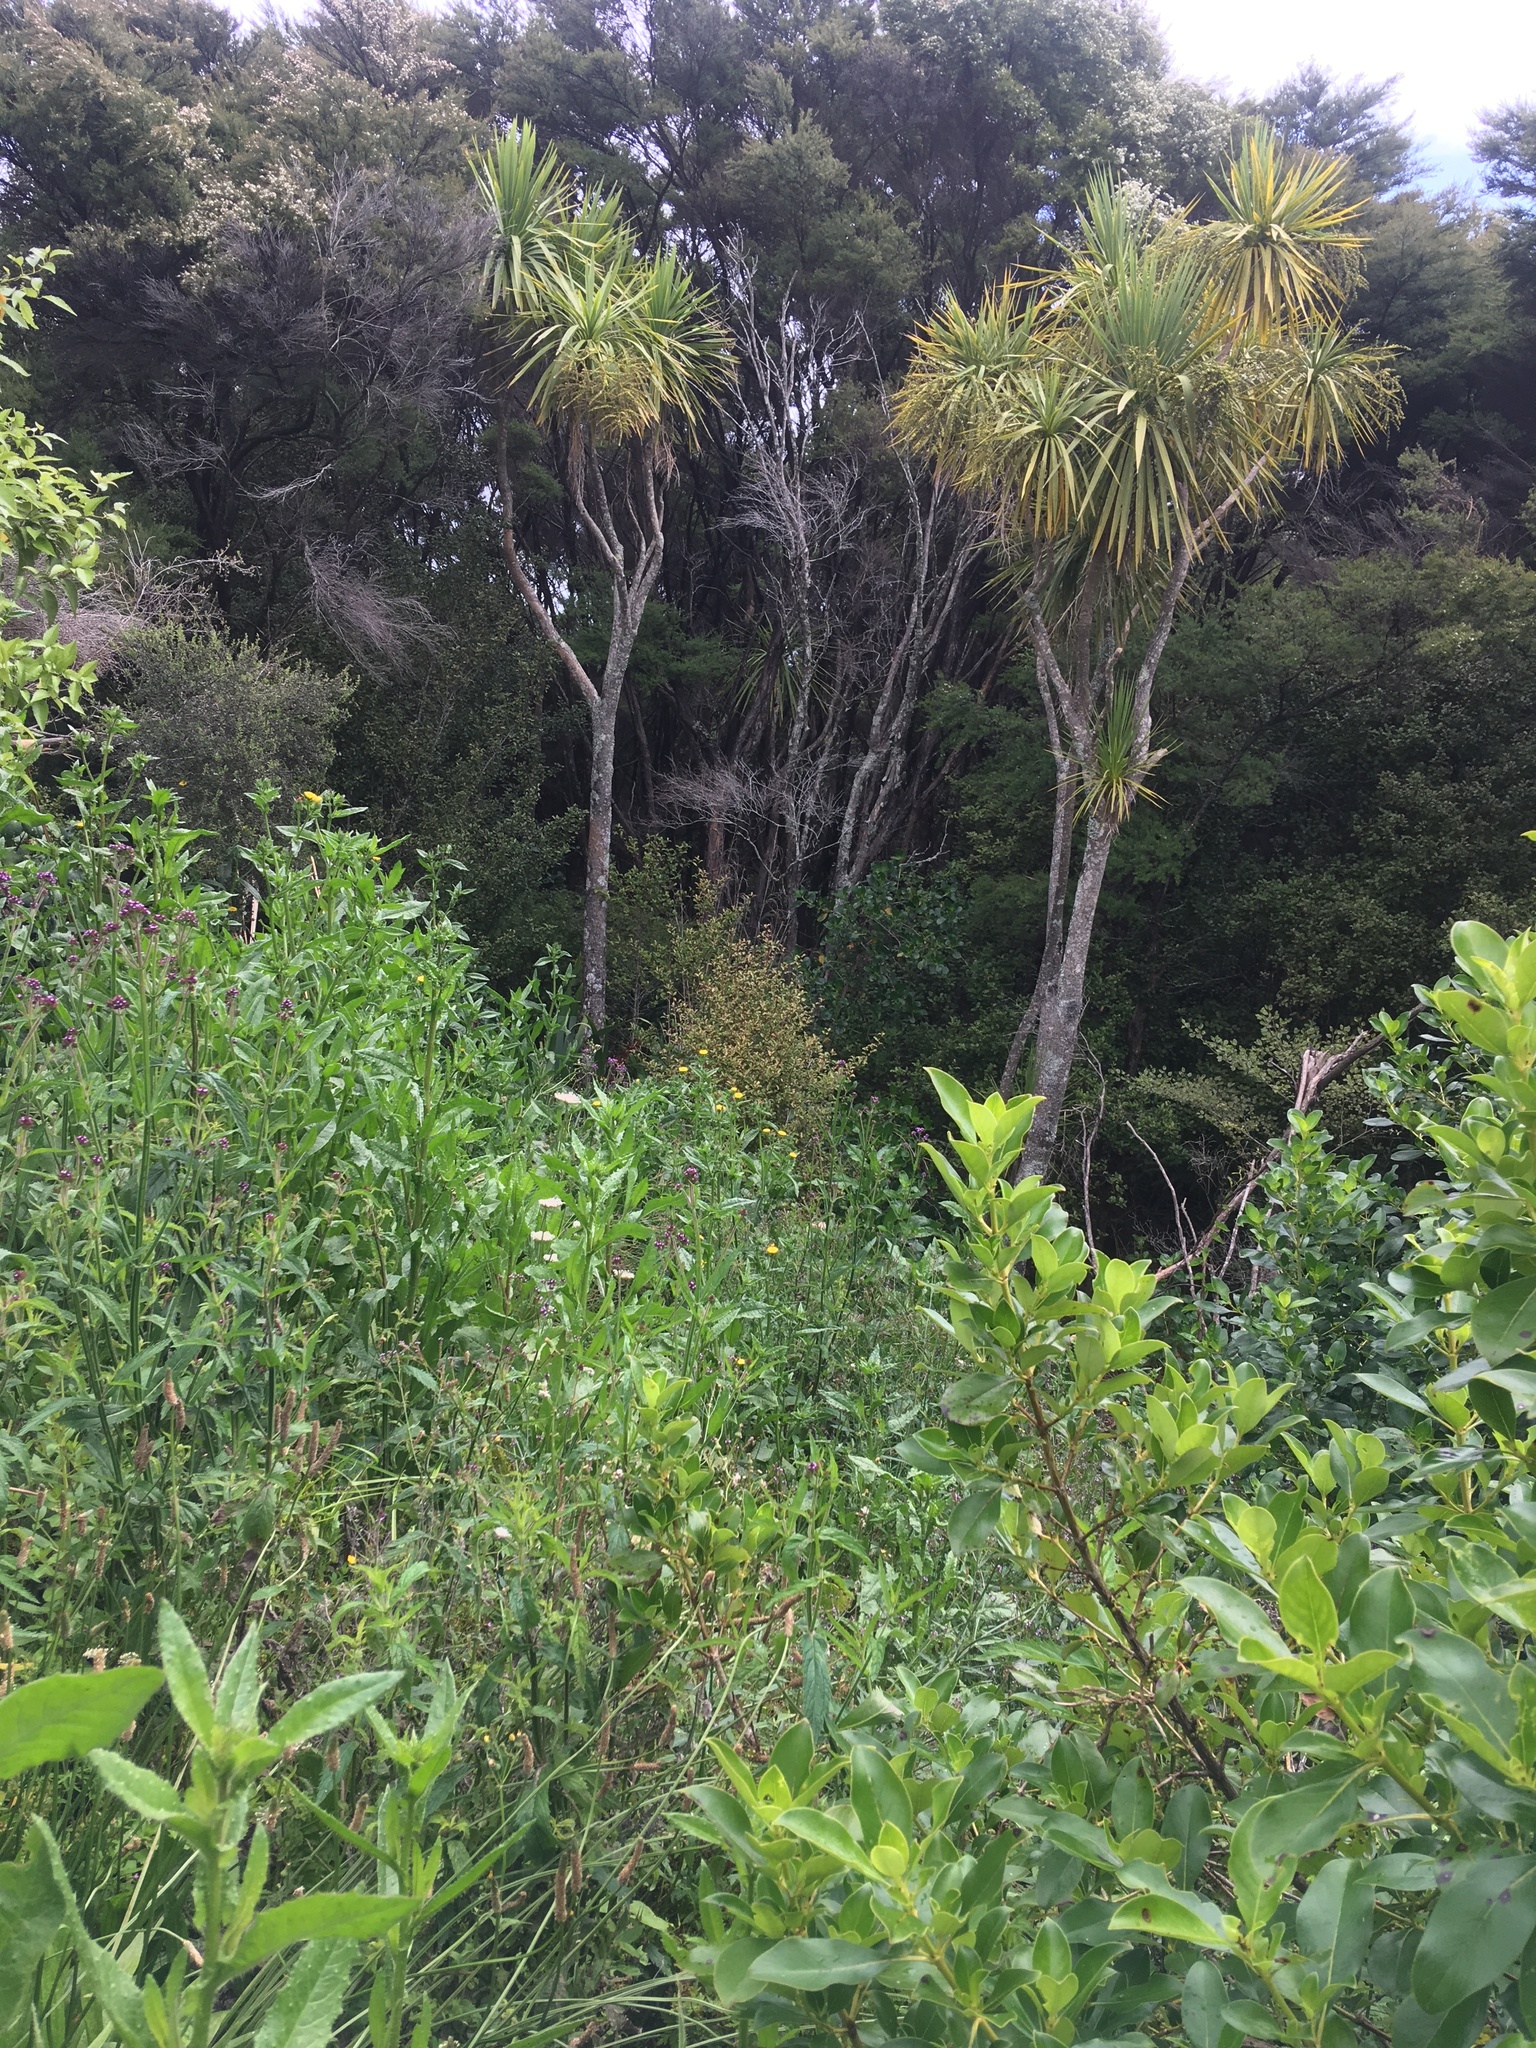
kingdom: Plantae
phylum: Tracheophyta
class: Liliopsida
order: Asparagales
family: Asparagaceae
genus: Cordyline
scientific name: Cordyline australis
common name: Cabbage-palm
